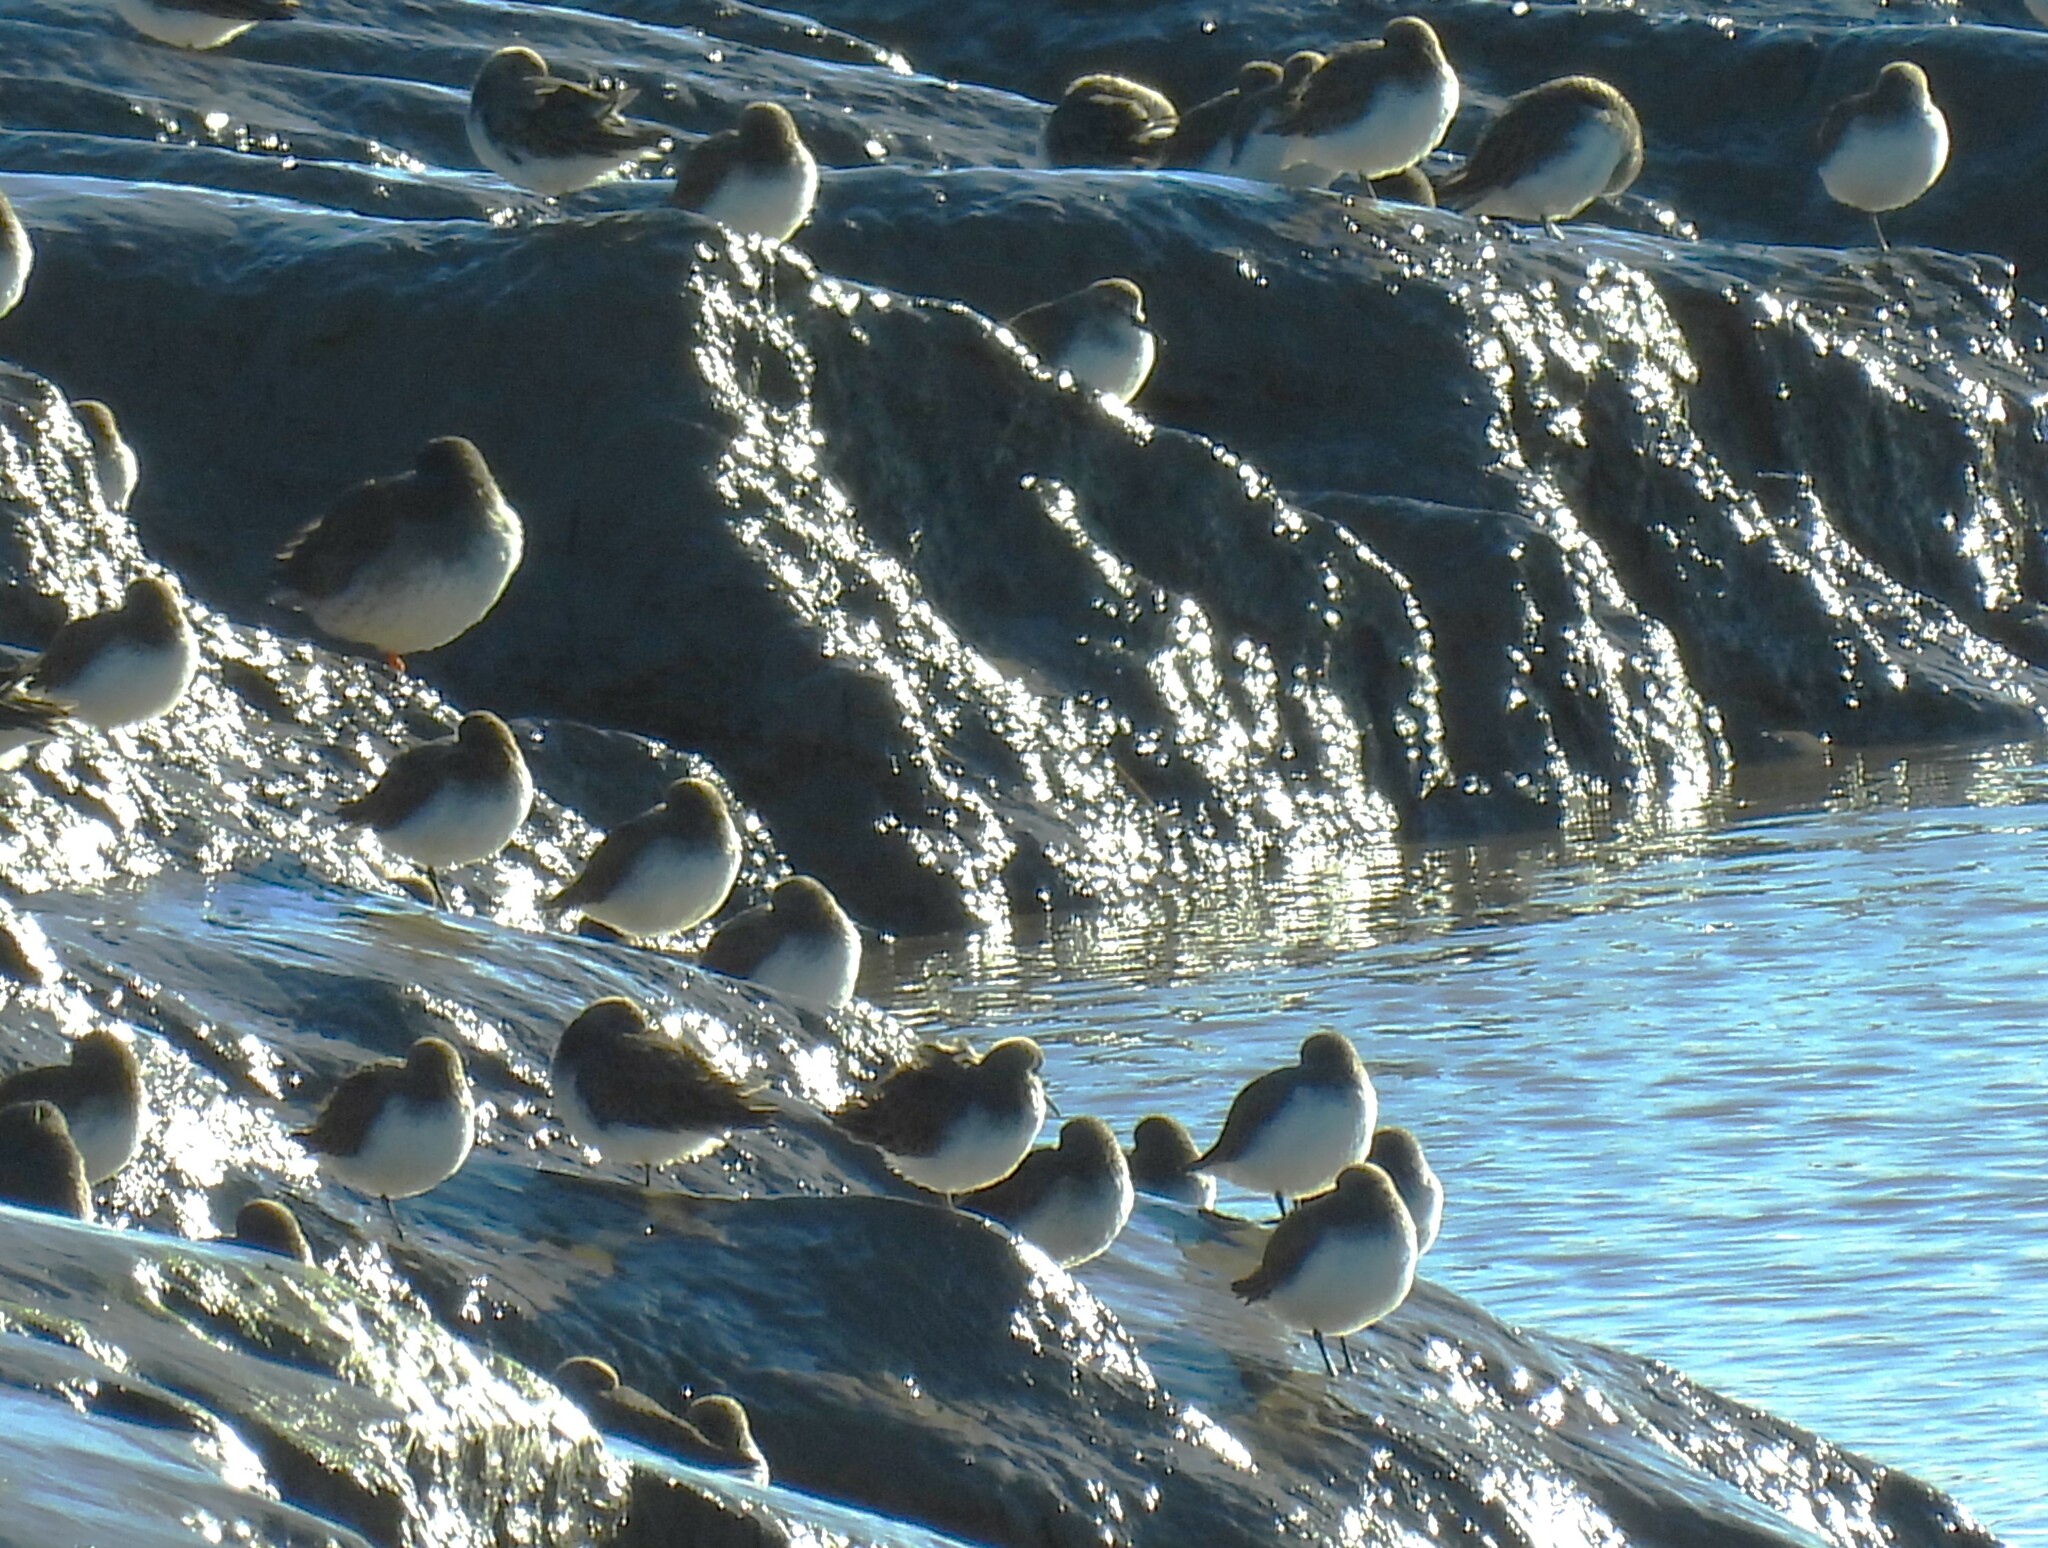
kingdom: Animalia
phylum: Chordata
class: Aves
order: Charadriiformes
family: Scolopacidae
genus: Calidris
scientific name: Calidris alpina
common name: Dunlin
